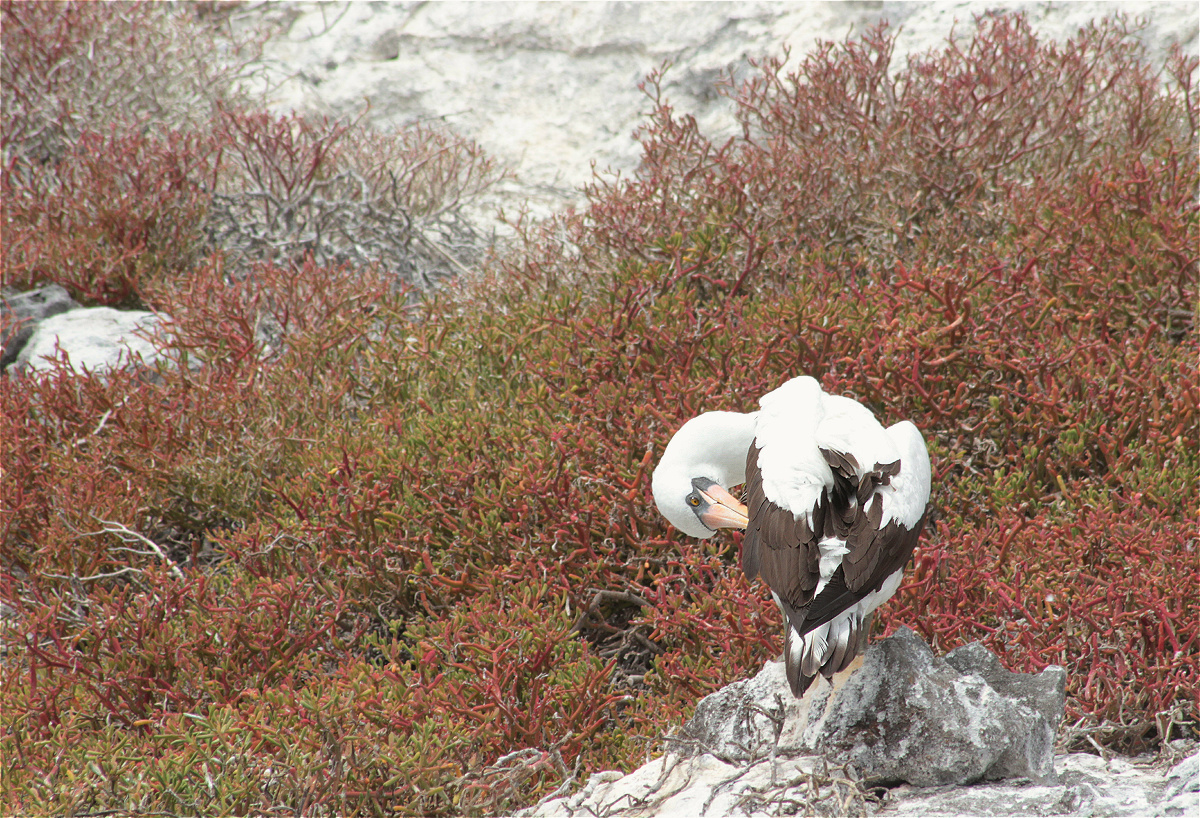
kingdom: Animalia
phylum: Chordata
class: Aves
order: Suliformes
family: Sulidae
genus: Sula
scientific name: Sula granti
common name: Nazca booby
